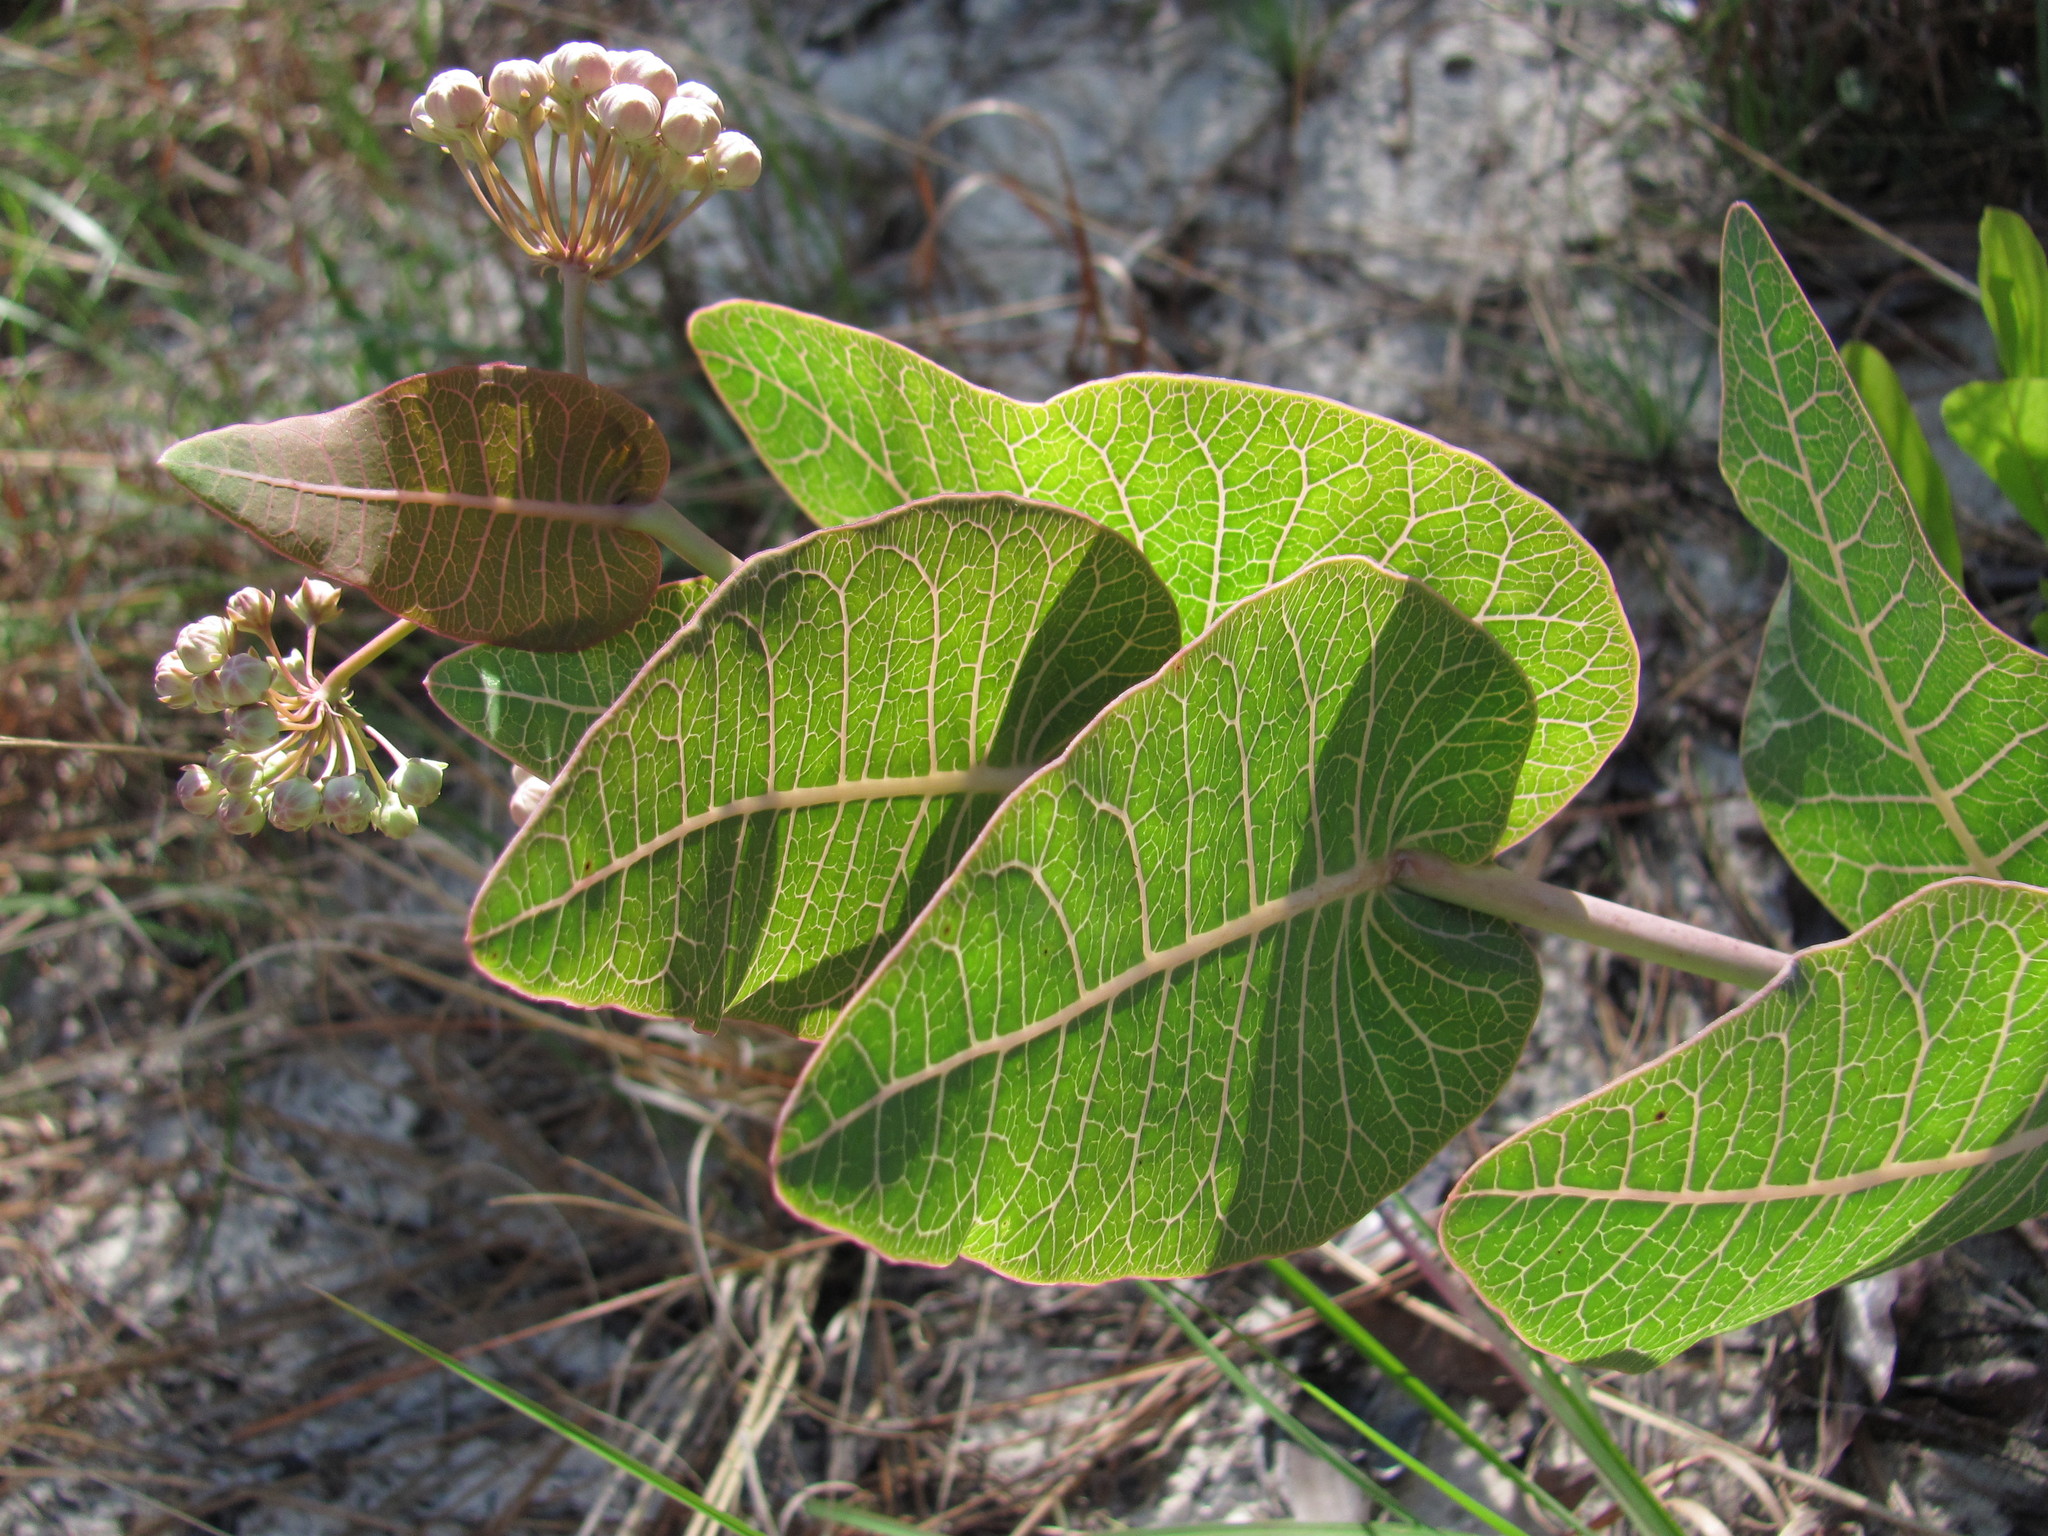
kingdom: Plantae
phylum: Tracheophyta
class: Magnoliopsida
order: Gentianales
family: Apocynaceae
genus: Asclepias
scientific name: Asclepias humistrata
